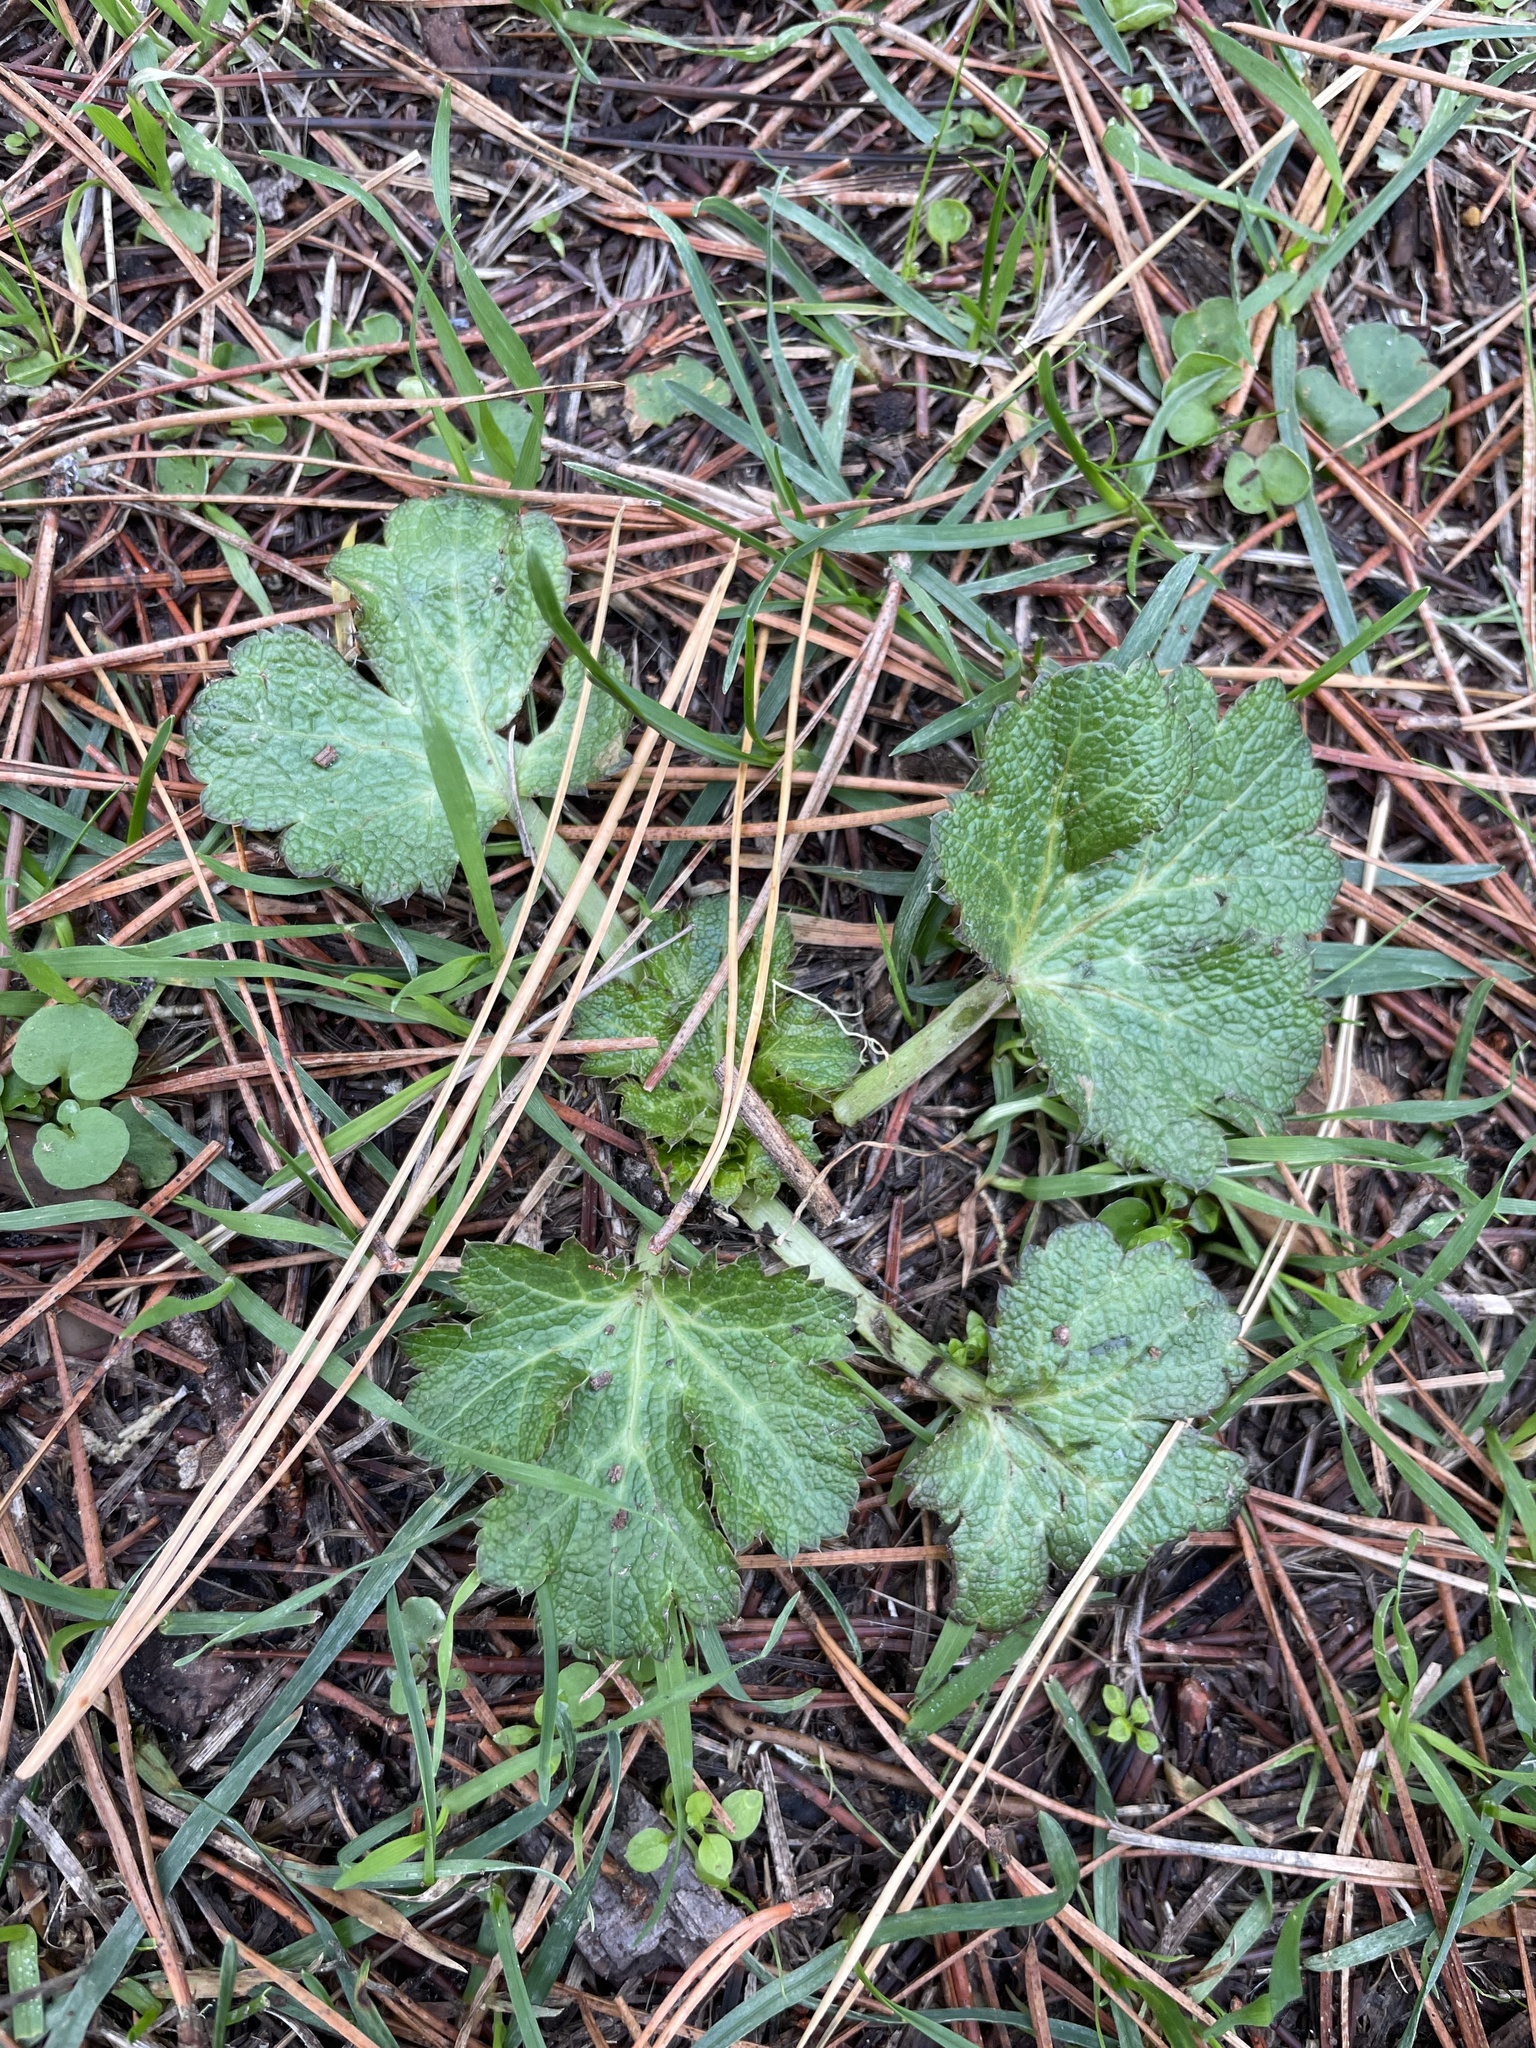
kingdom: Plantae
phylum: Tracheophyta
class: Magnoliopsida
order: Apiales
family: Apiaceae
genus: Sanicula
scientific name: Sanicula crassicaulis
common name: Western snakeroot
